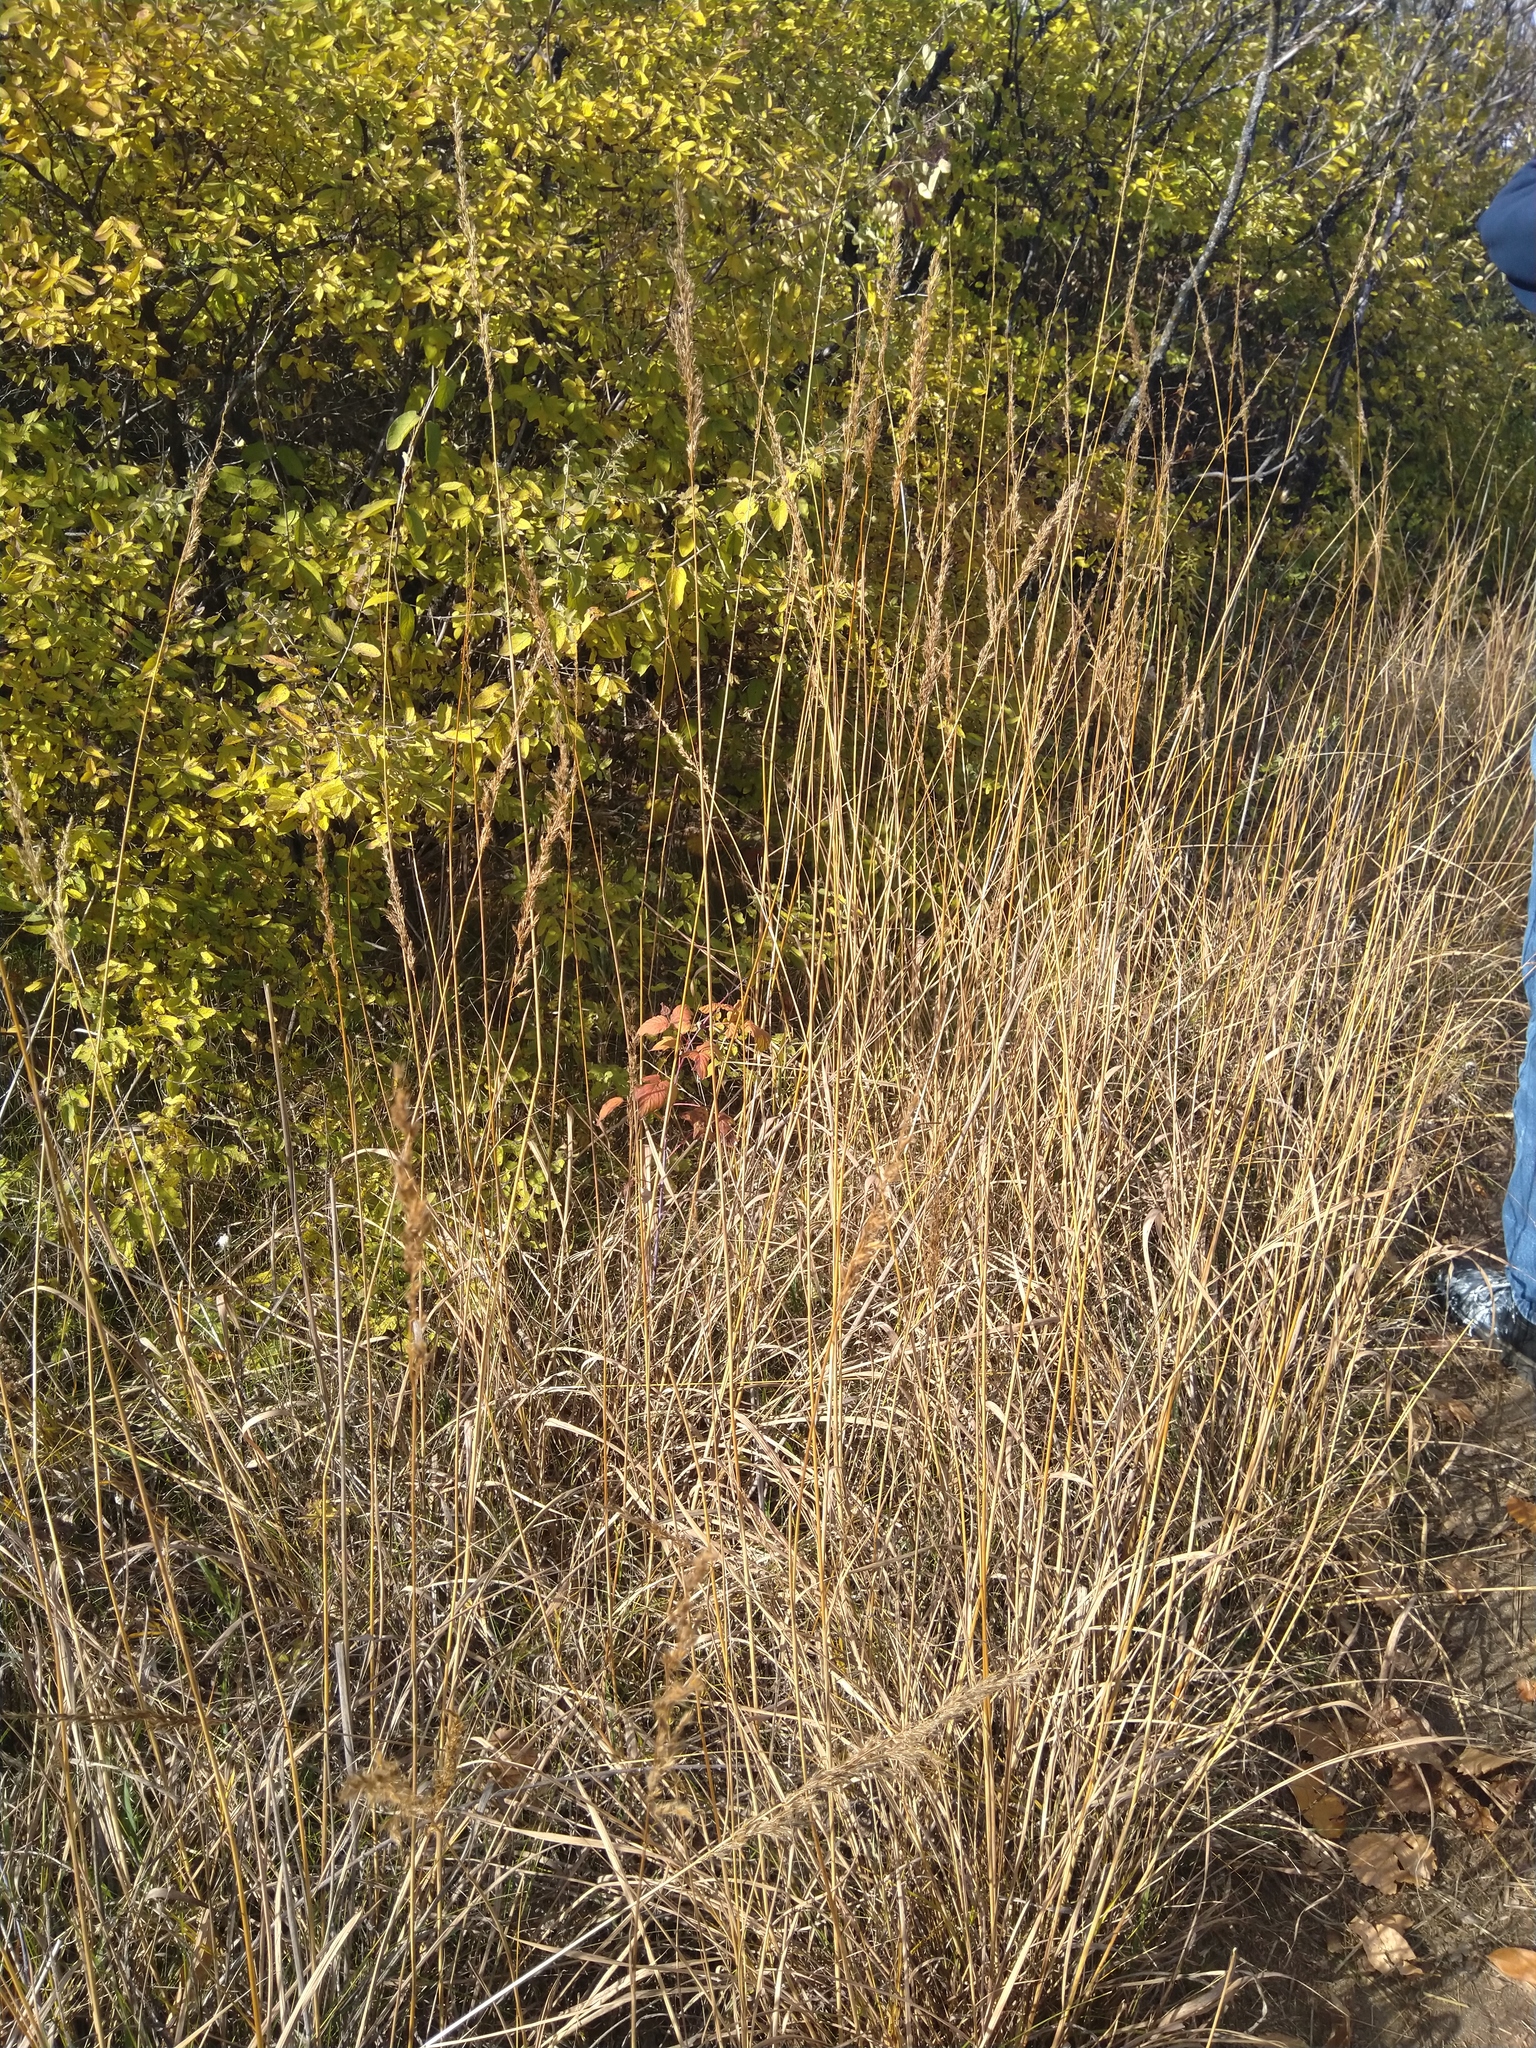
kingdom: Plantae
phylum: Tracheophyta
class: Liliopsida
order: Poales
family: Poaceae
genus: Sorghastrum
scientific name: Sorghastrum nutans
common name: Indian grass
